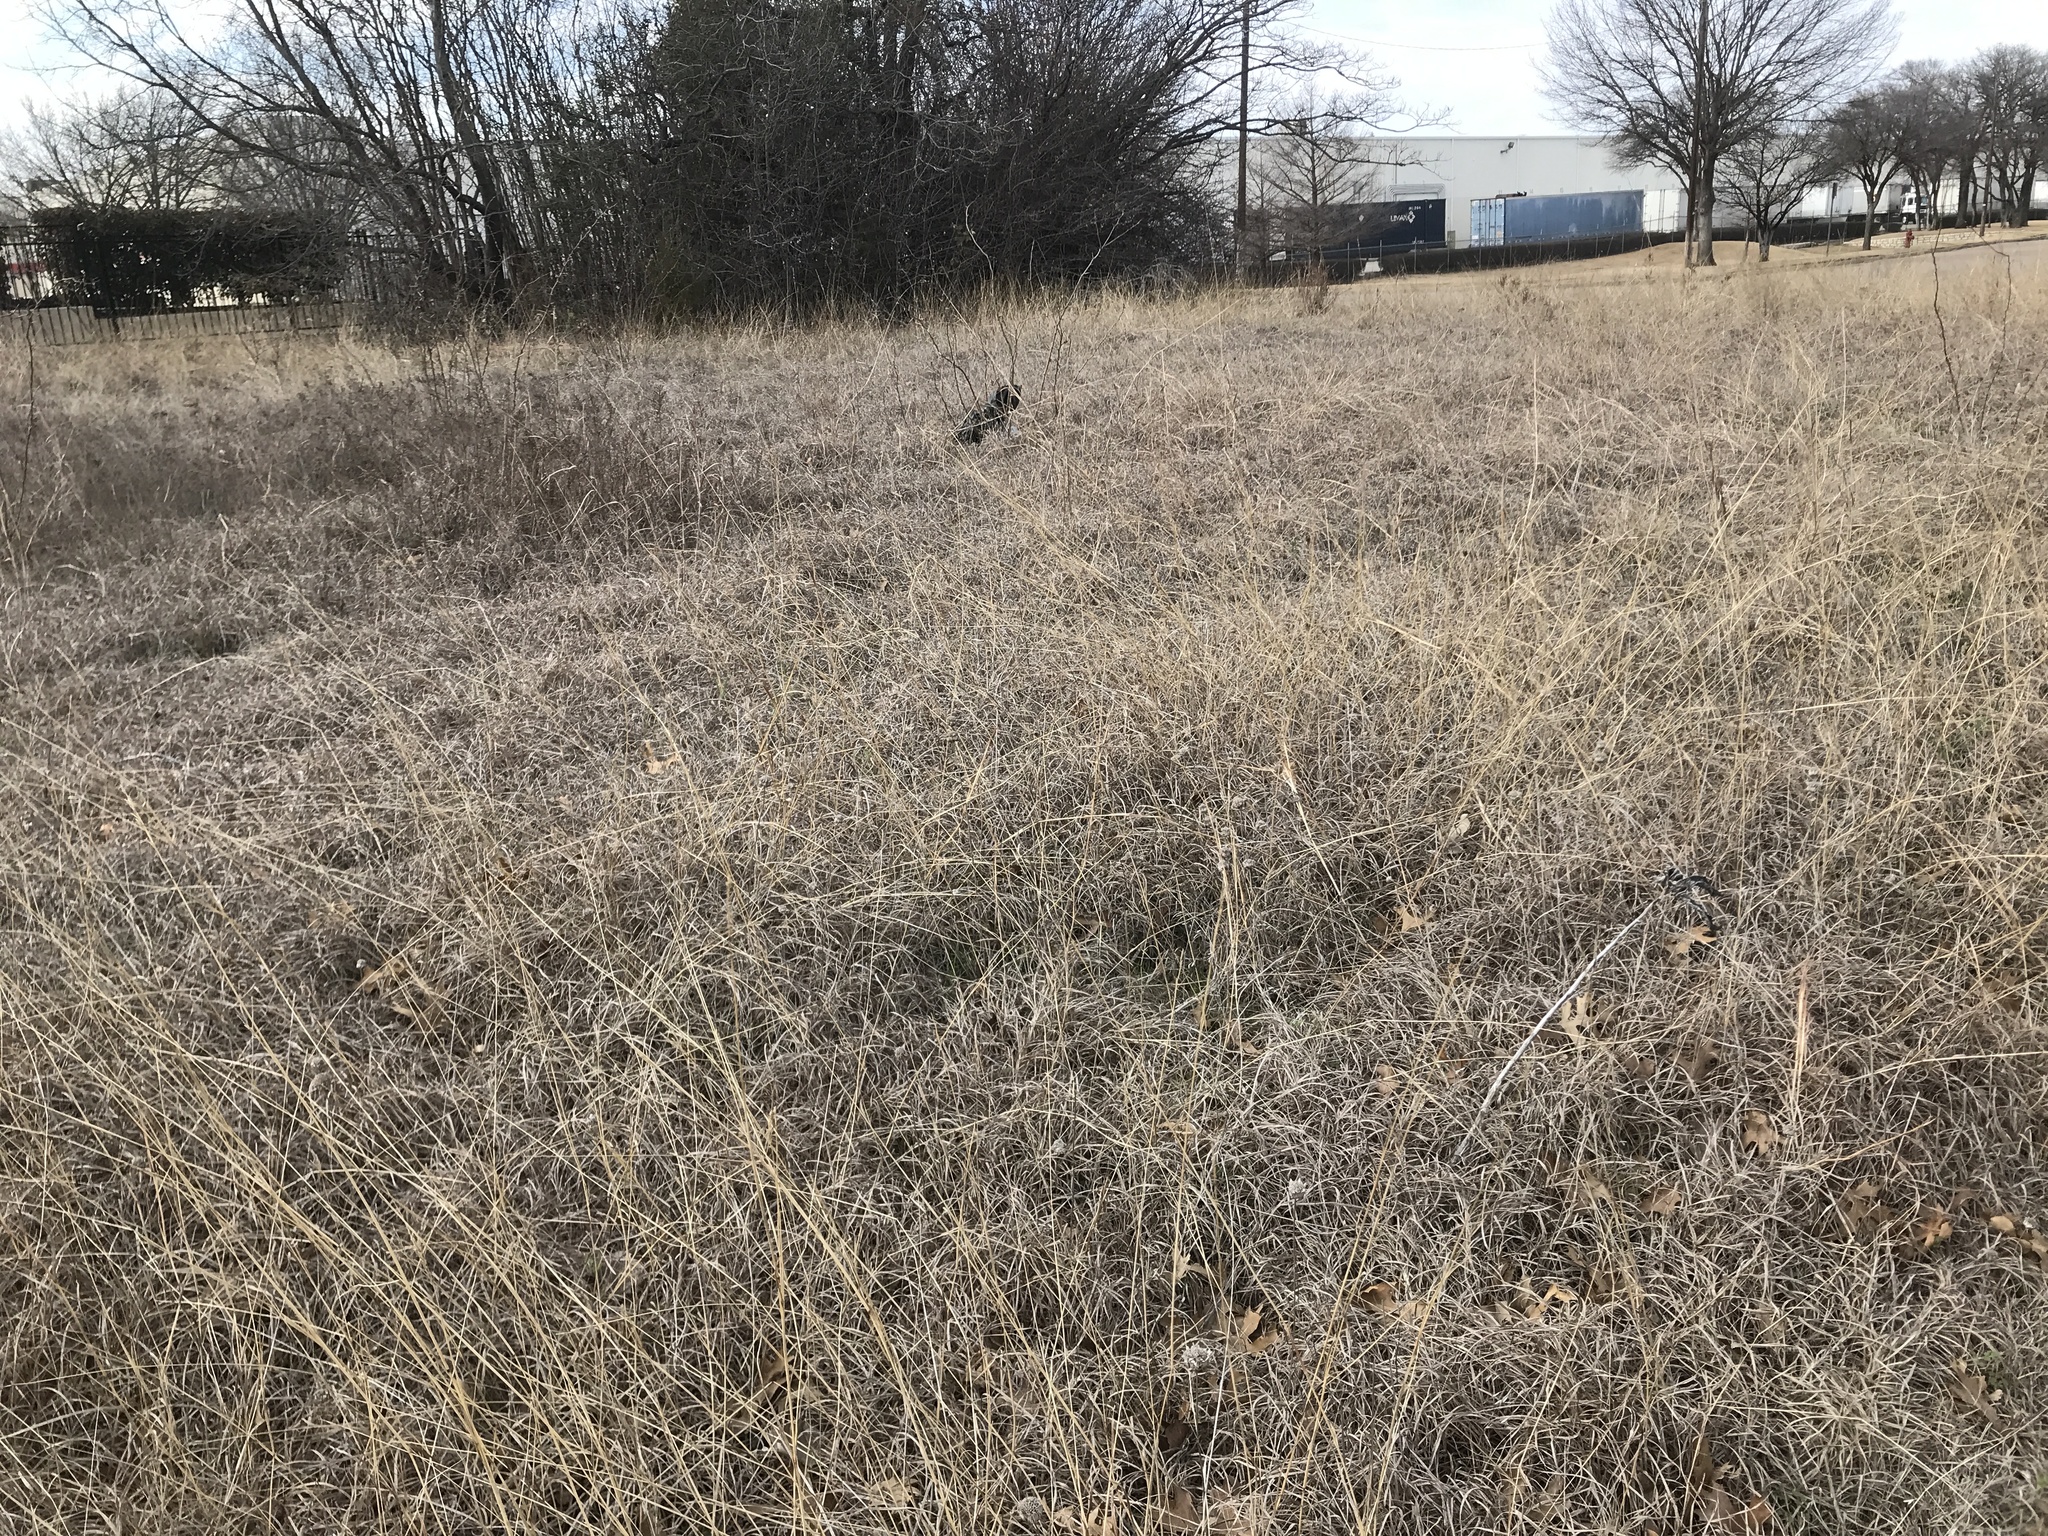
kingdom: Plantae
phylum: Tracheophyta
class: Liliopsida
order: Poales
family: Poaceae
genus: Bothriochloa
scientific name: Bothriochloa ischaemum
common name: Yellow bluestem
